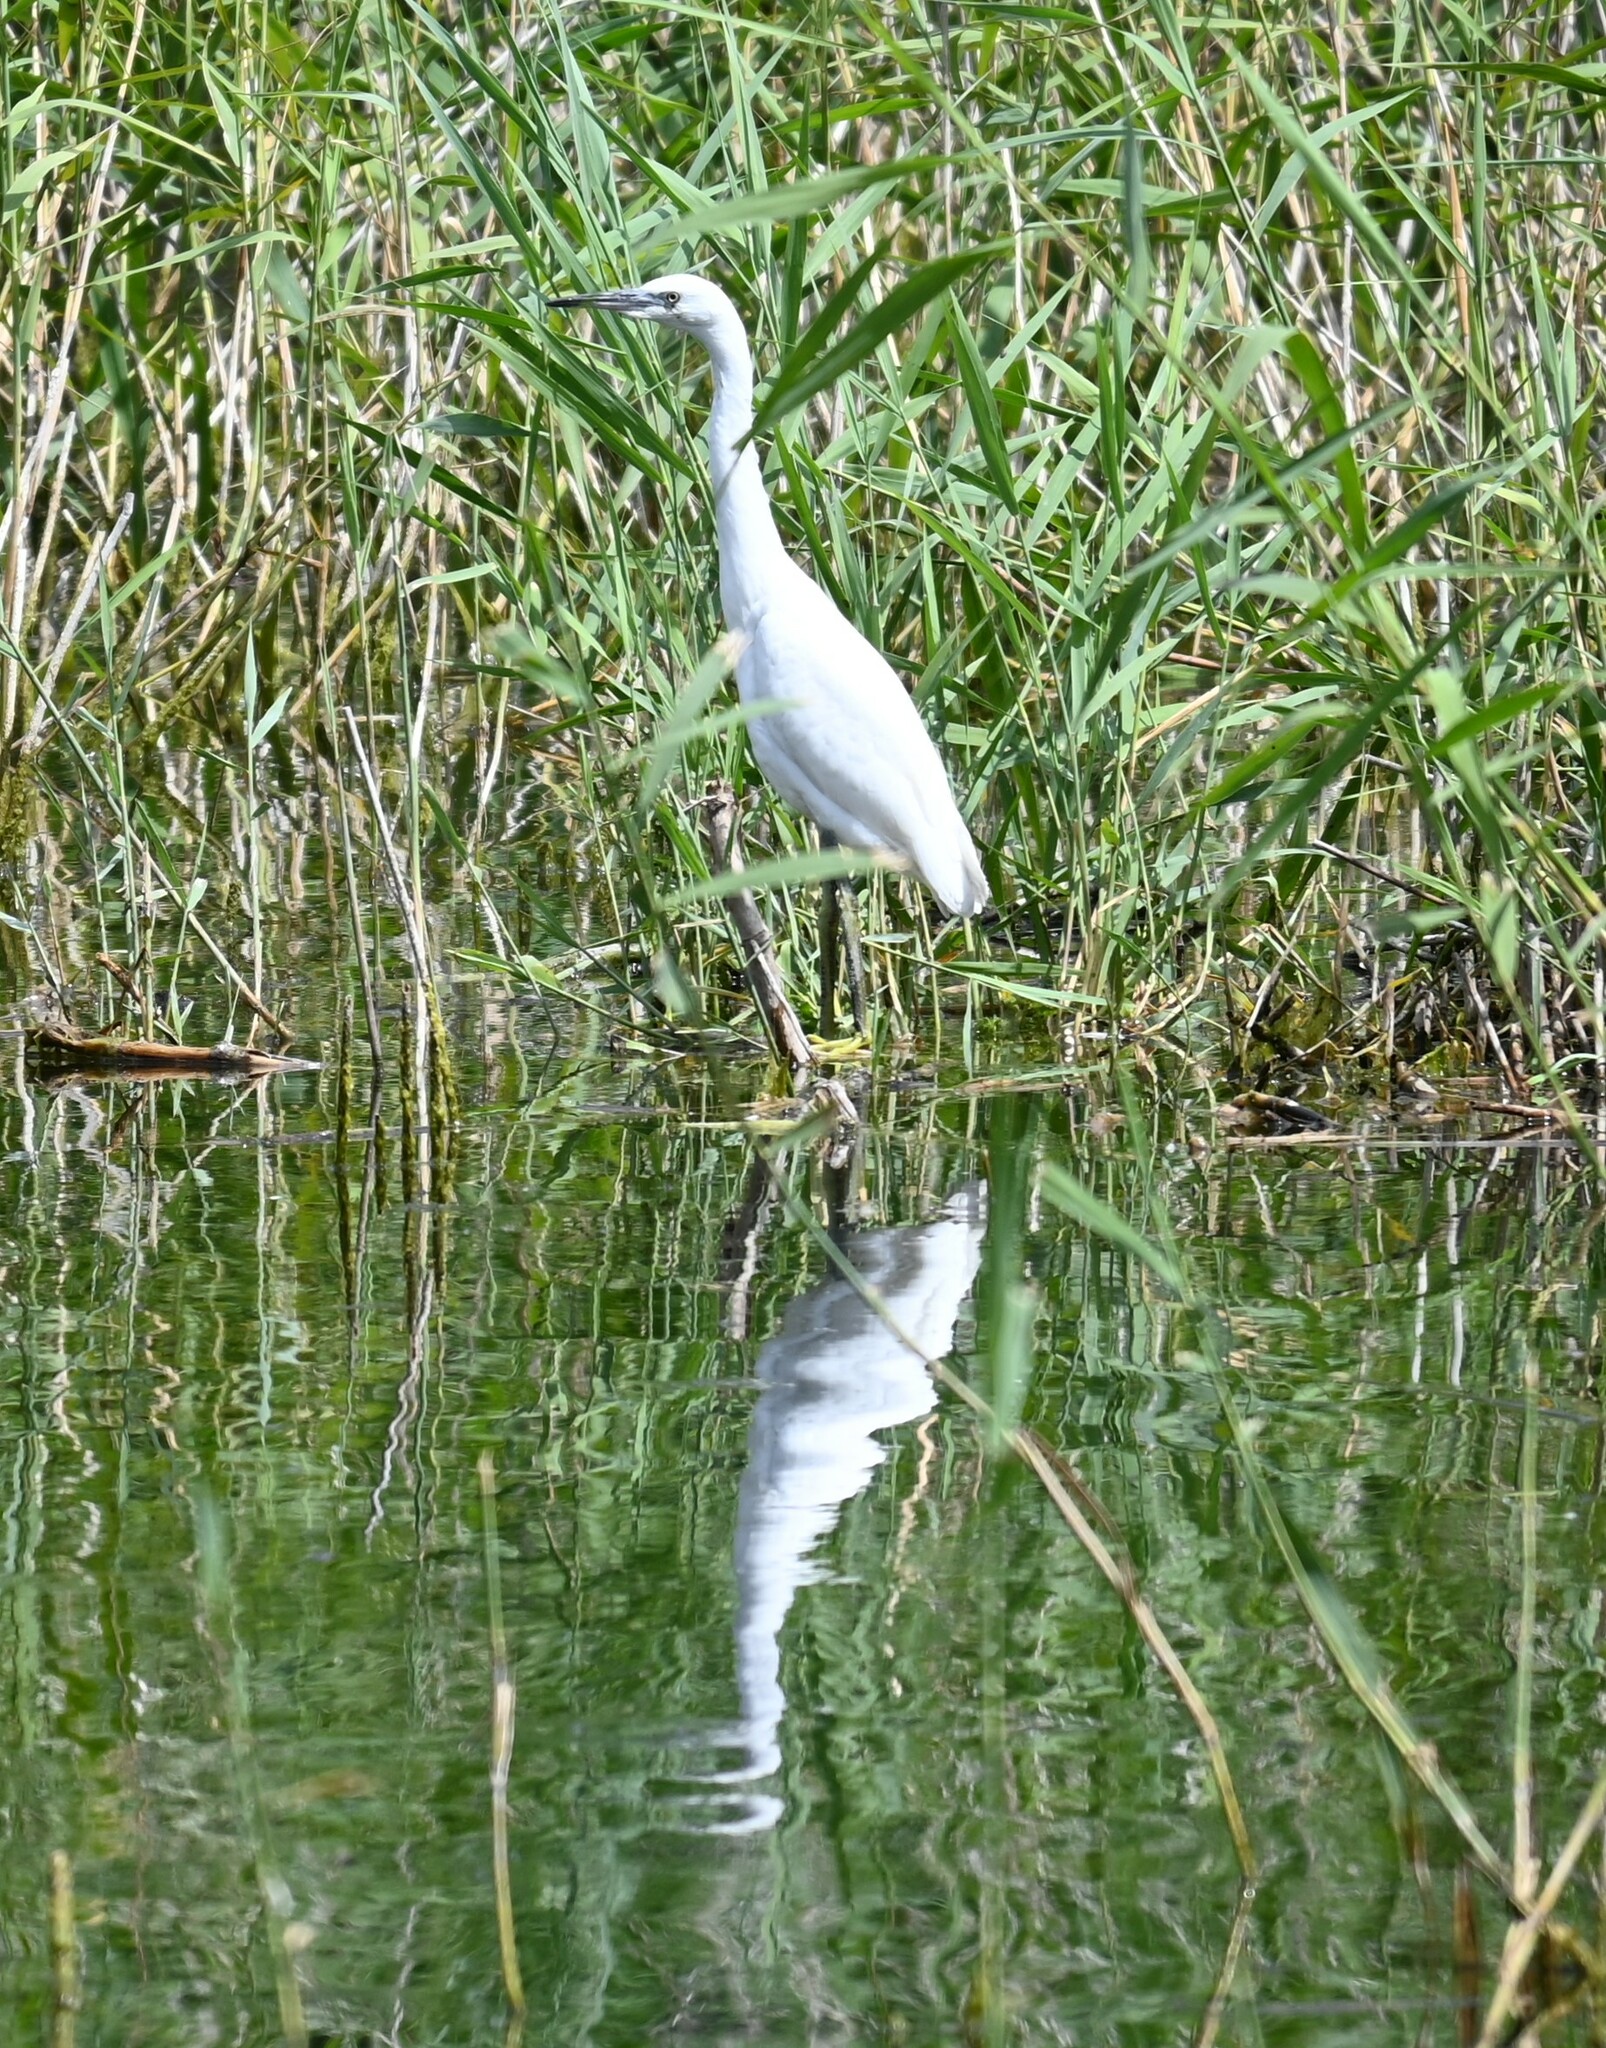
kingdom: Animalia
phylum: Chordata
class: Aves
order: Pelecaniformes
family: Ardeidae
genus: Egretta
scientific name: Egretta garzetta
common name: Little egret
